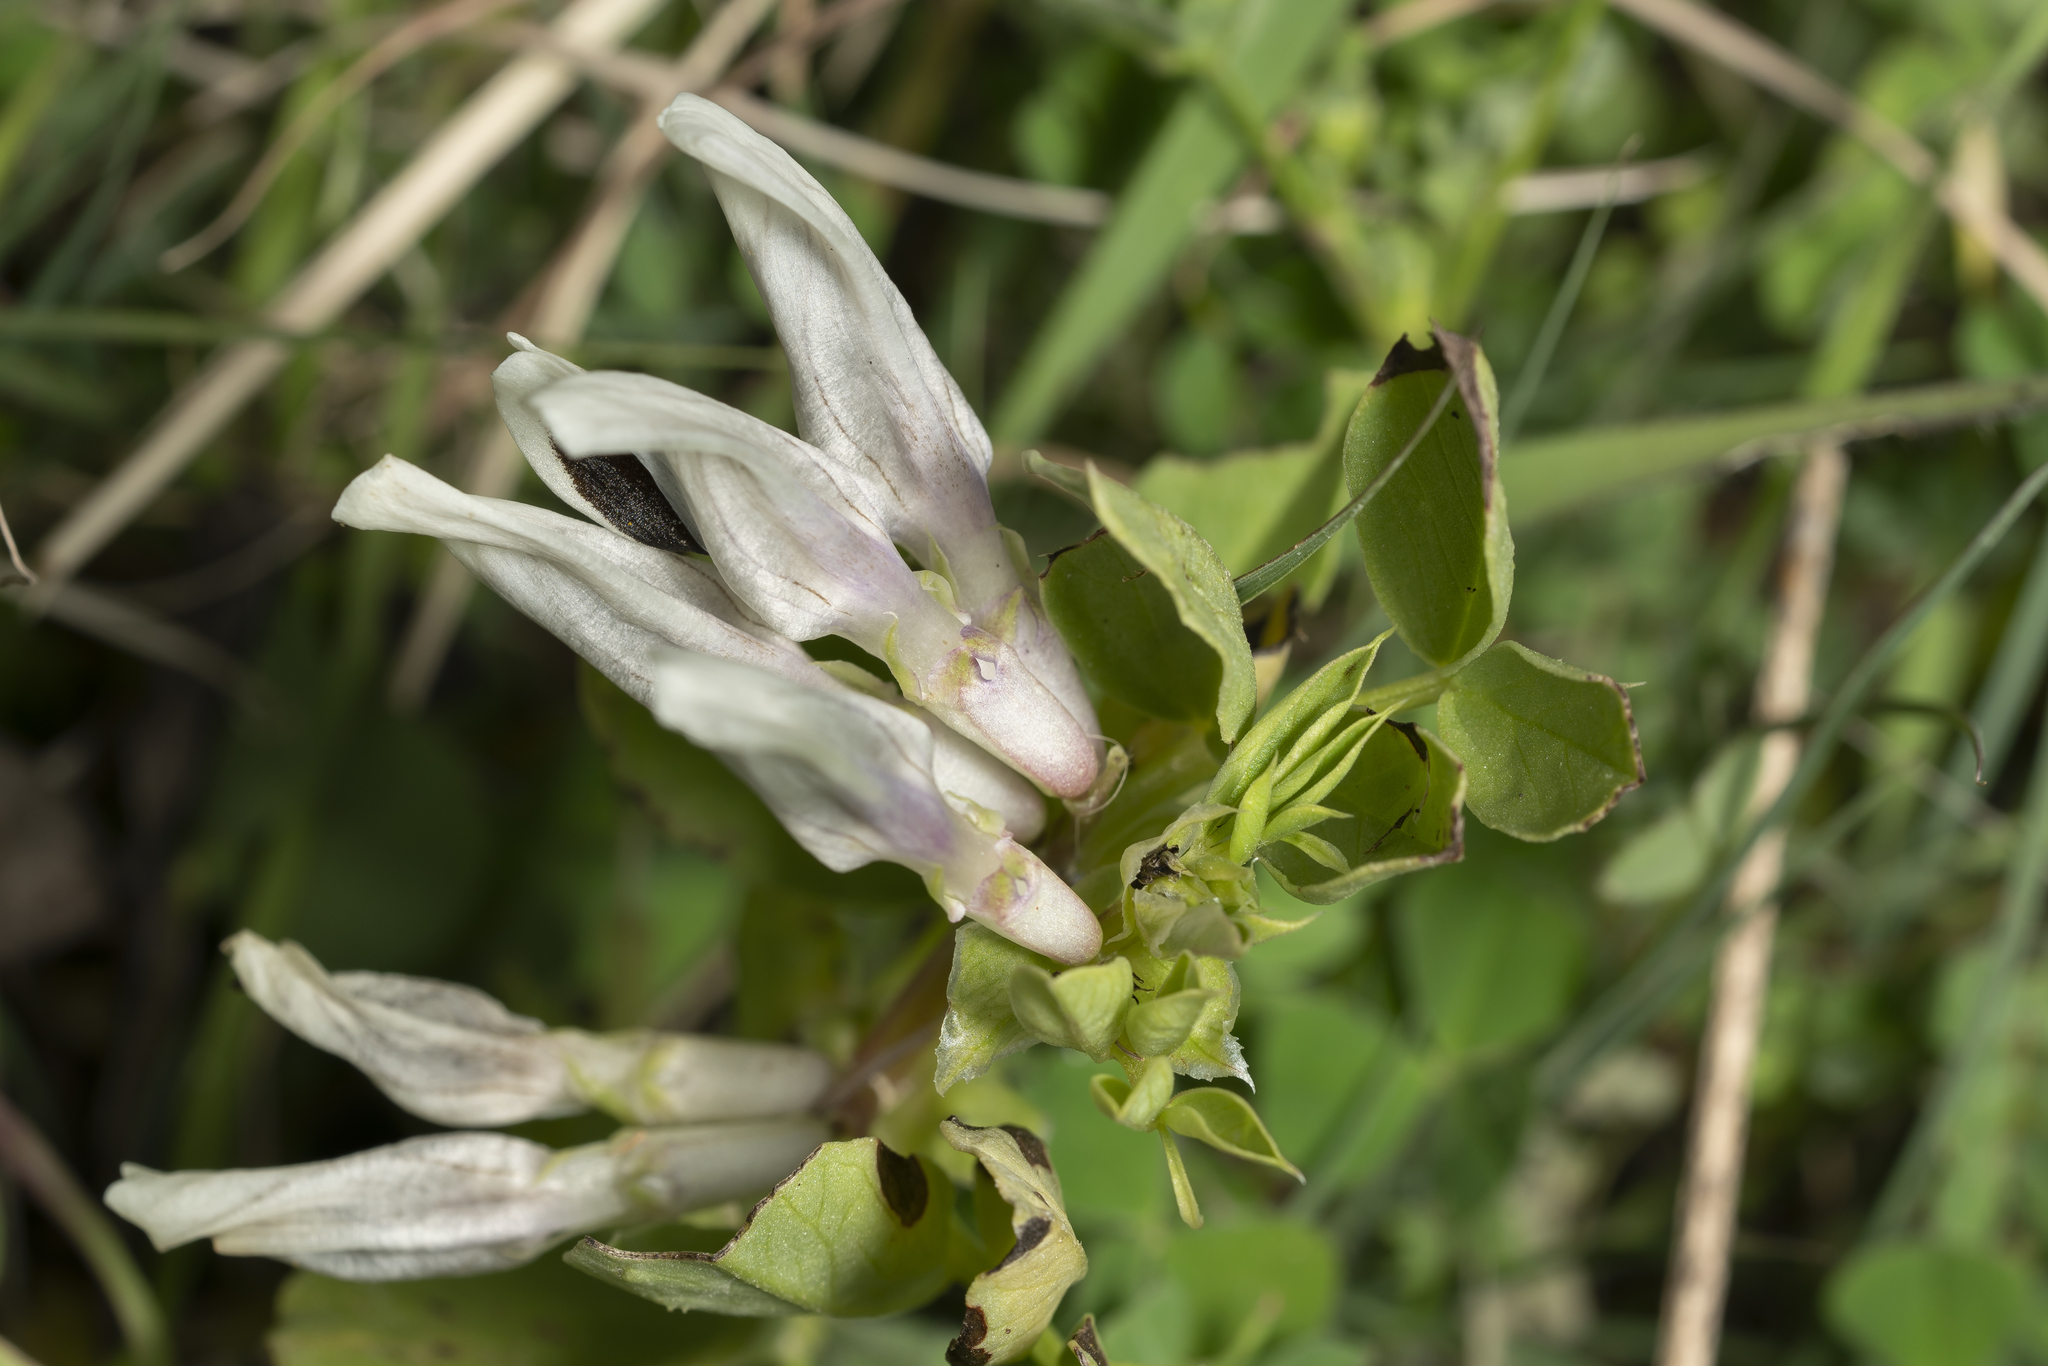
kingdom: Plantae
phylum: Tracheophyta
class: Magnoliopsida
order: Fabales
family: Fabaceae
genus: Vicia
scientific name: Vicia faba
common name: Broad bean
